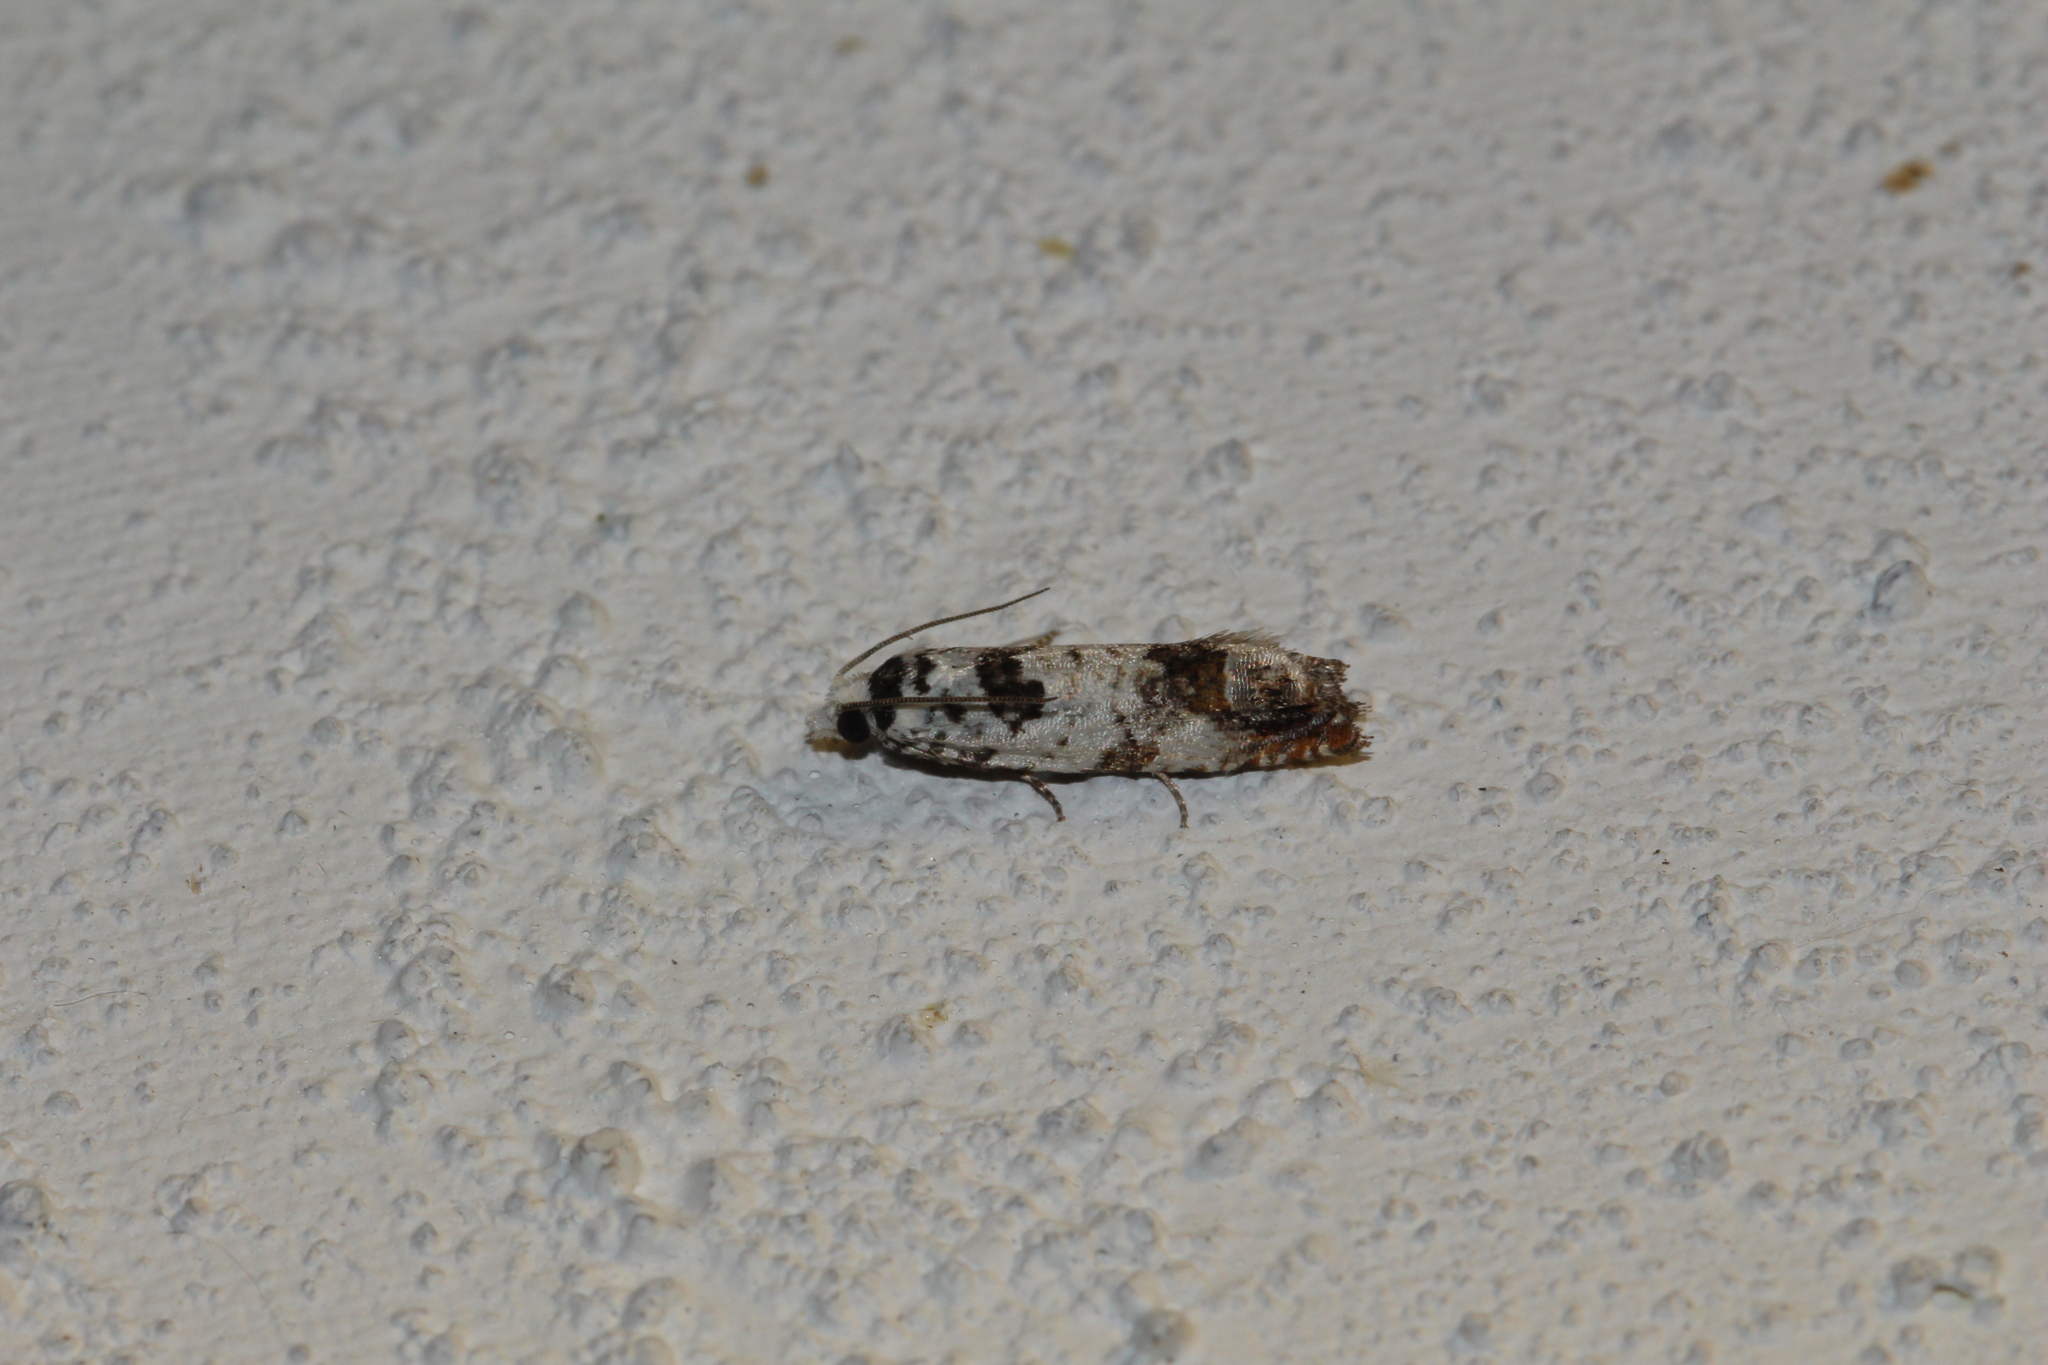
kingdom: Animalia
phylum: Arthropoda
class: Insecta
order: Lepidoptera
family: Tortricidae
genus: Eucosma
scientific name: Eucosma campoliliana
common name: Marbled bell
